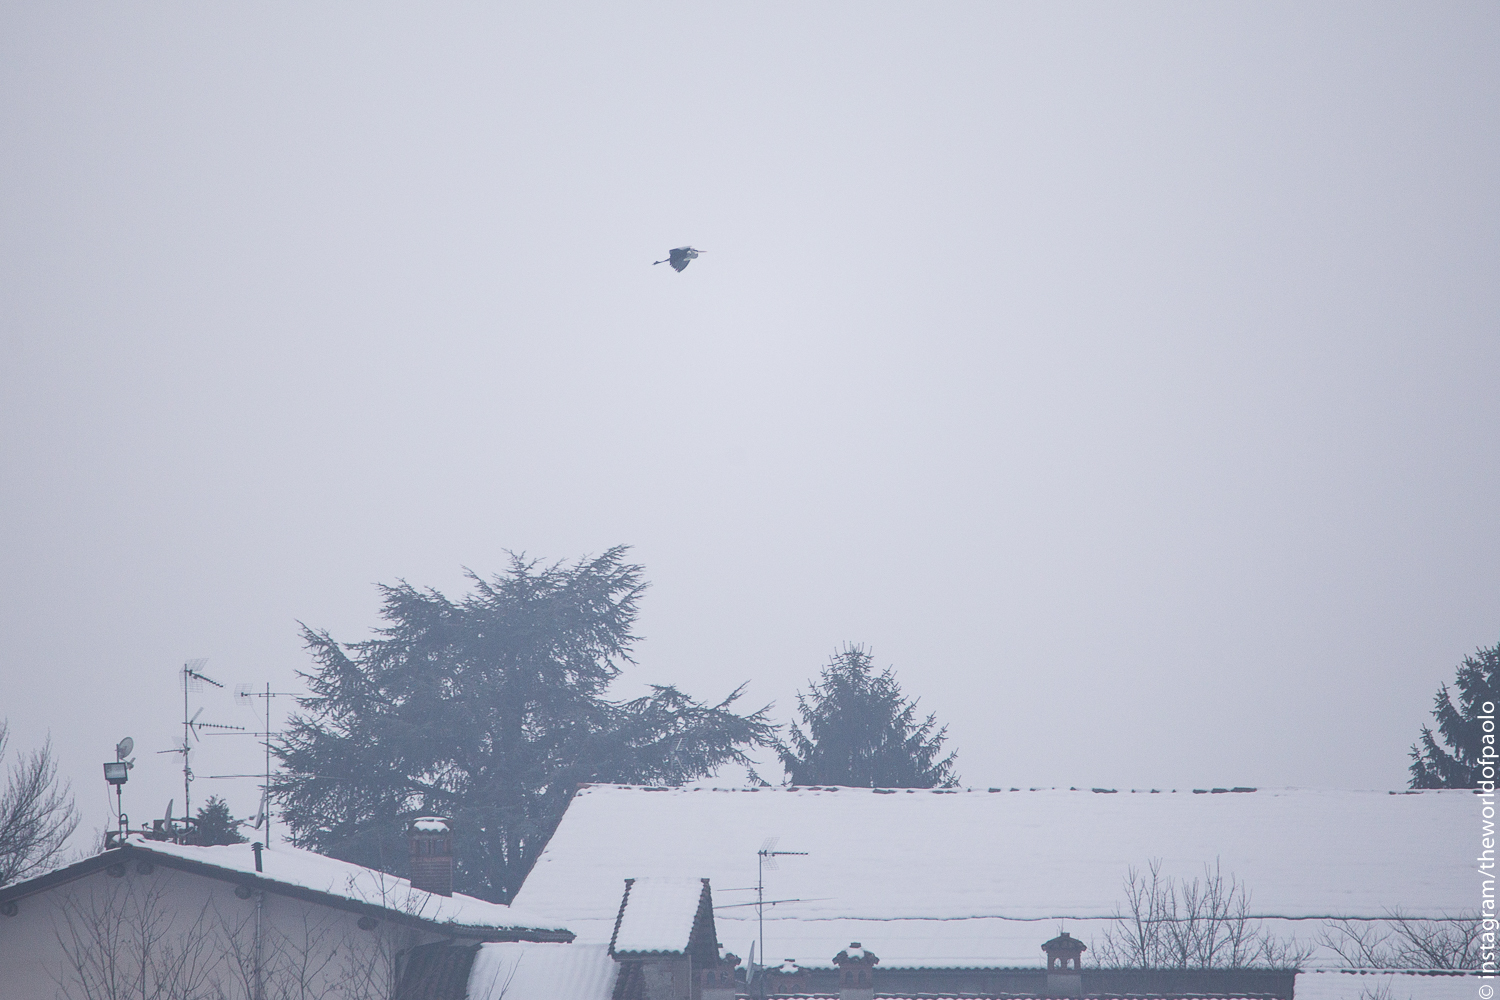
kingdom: Animalia
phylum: Chordata
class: Aves
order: Pelecaniformes
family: Ardeidae
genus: Ardea
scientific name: Ardea cinerea
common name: Grey heron
